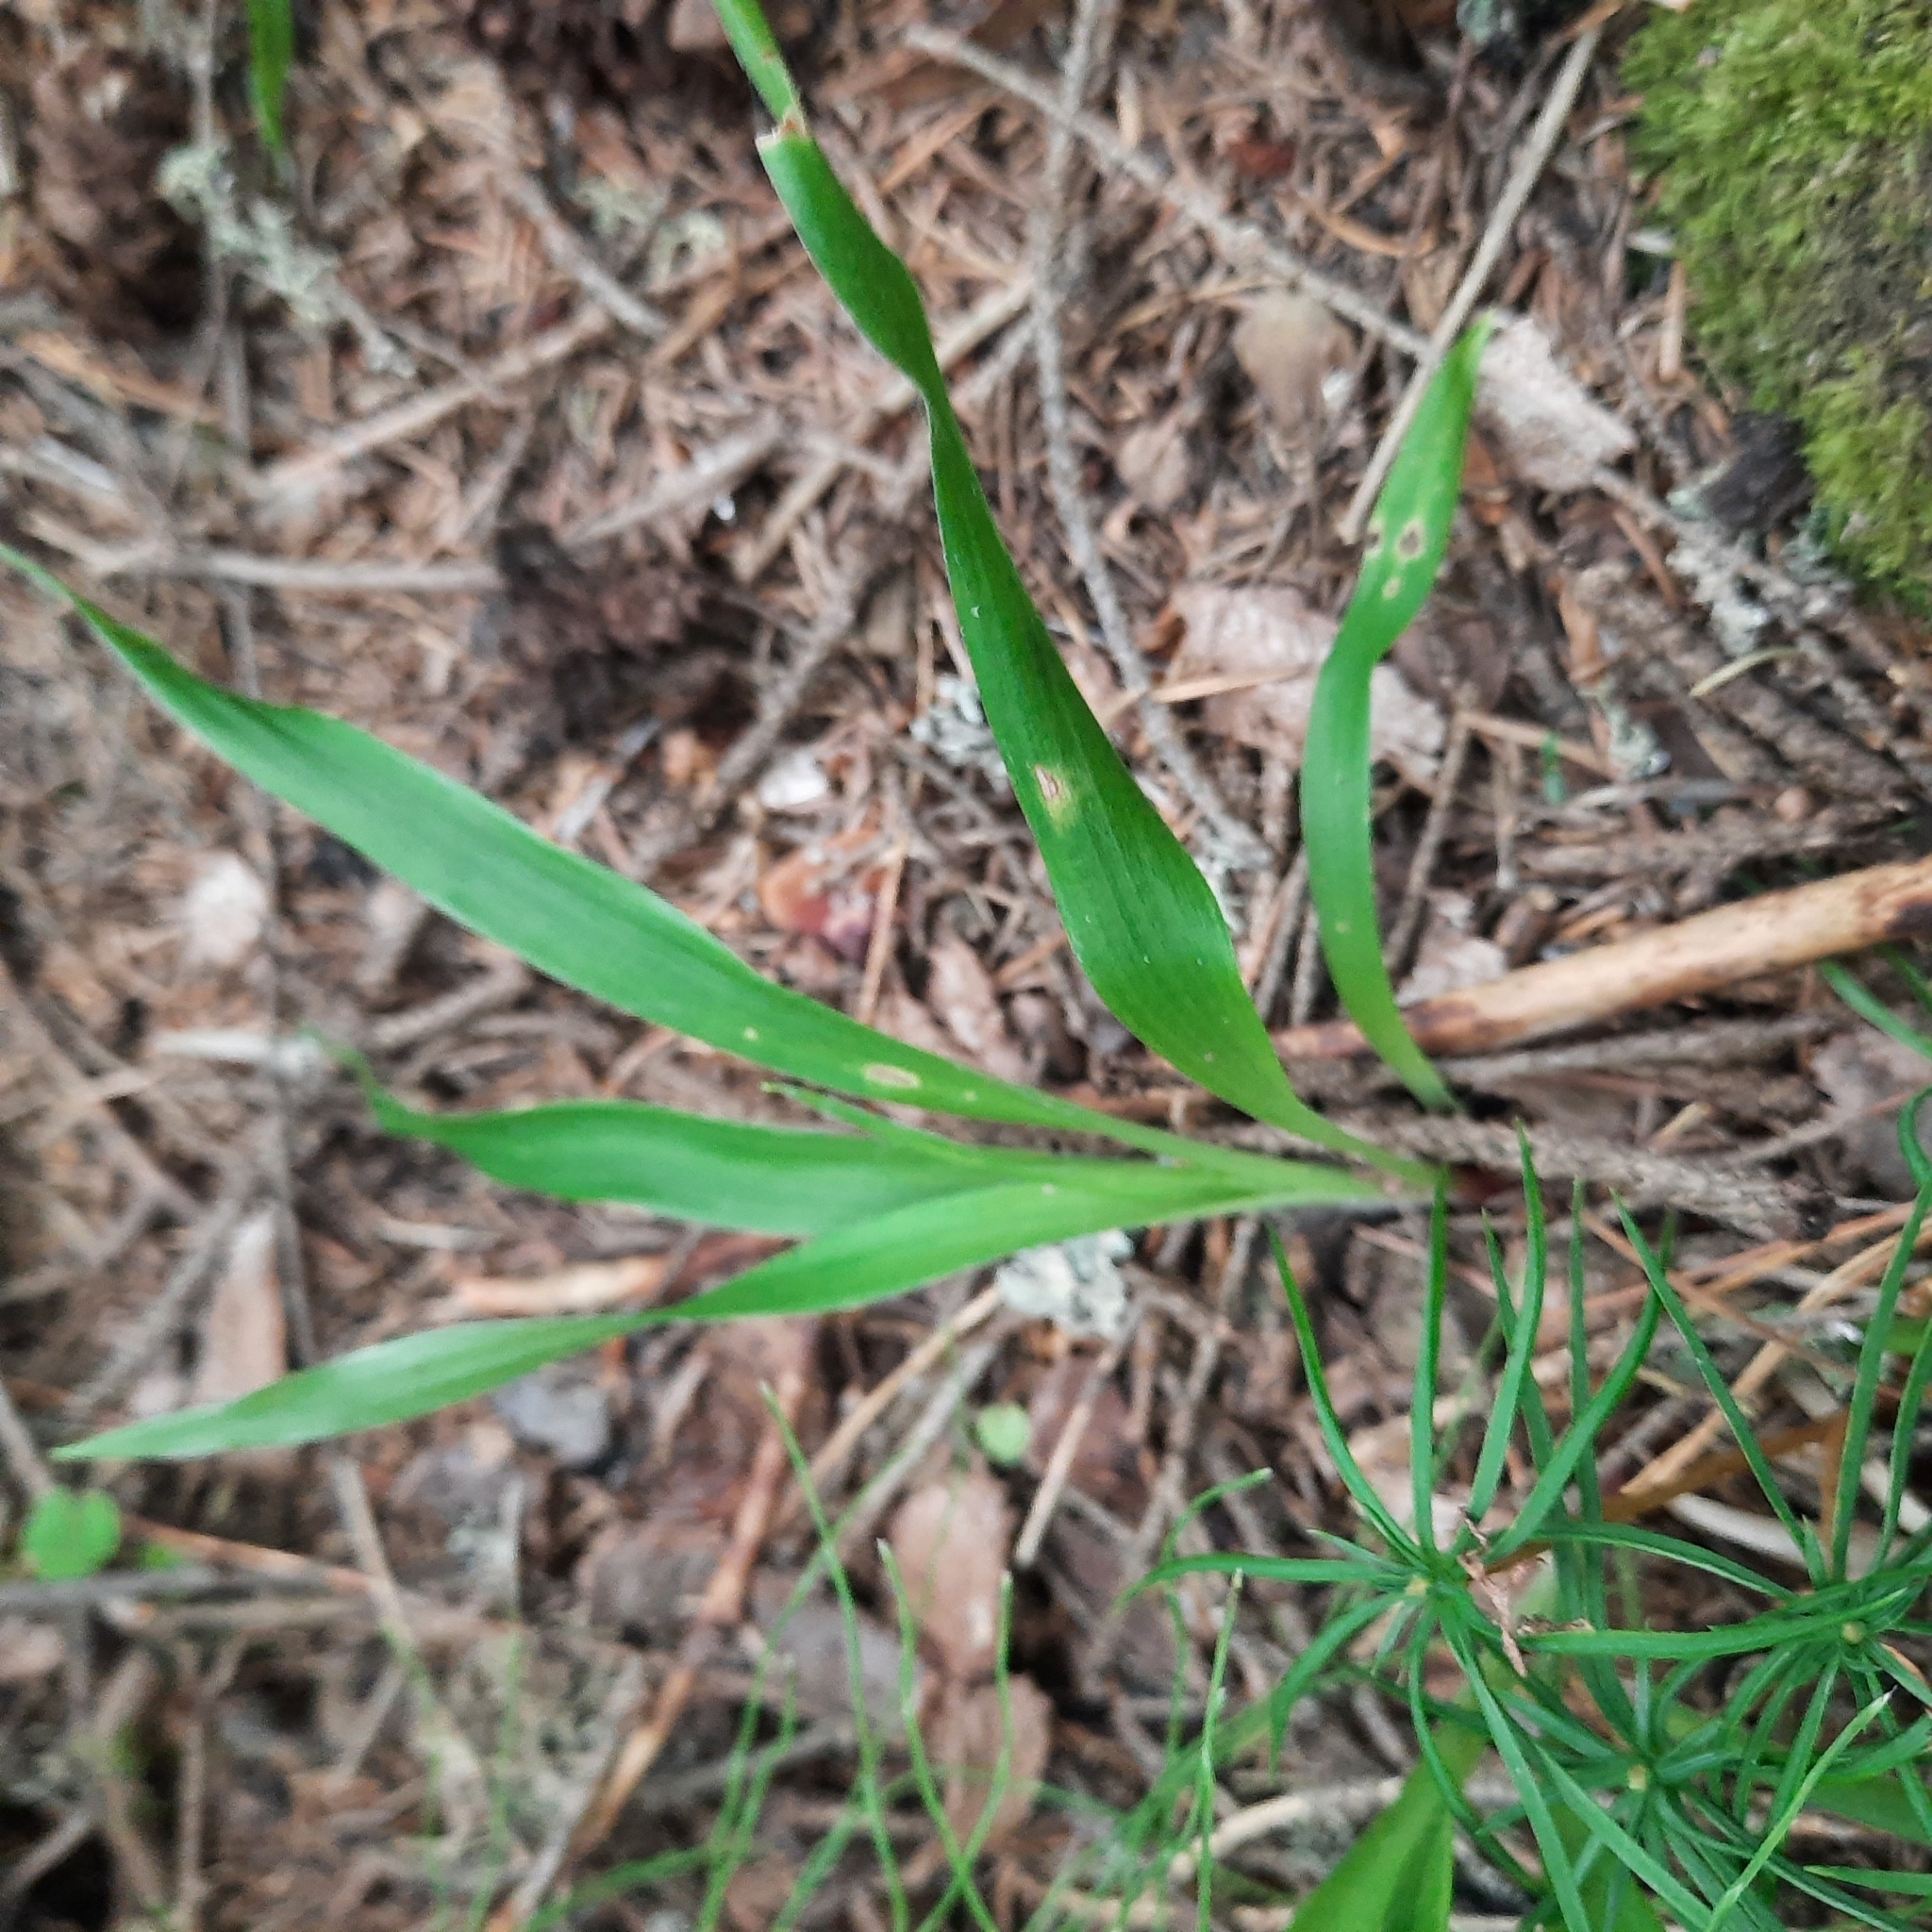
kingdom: Plantae
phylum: Tracheophyta
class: Liliopsida
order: Poales
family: Juncaceae
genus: Luzula
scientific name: Luzula pilosa
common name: Hairy wood-rush
